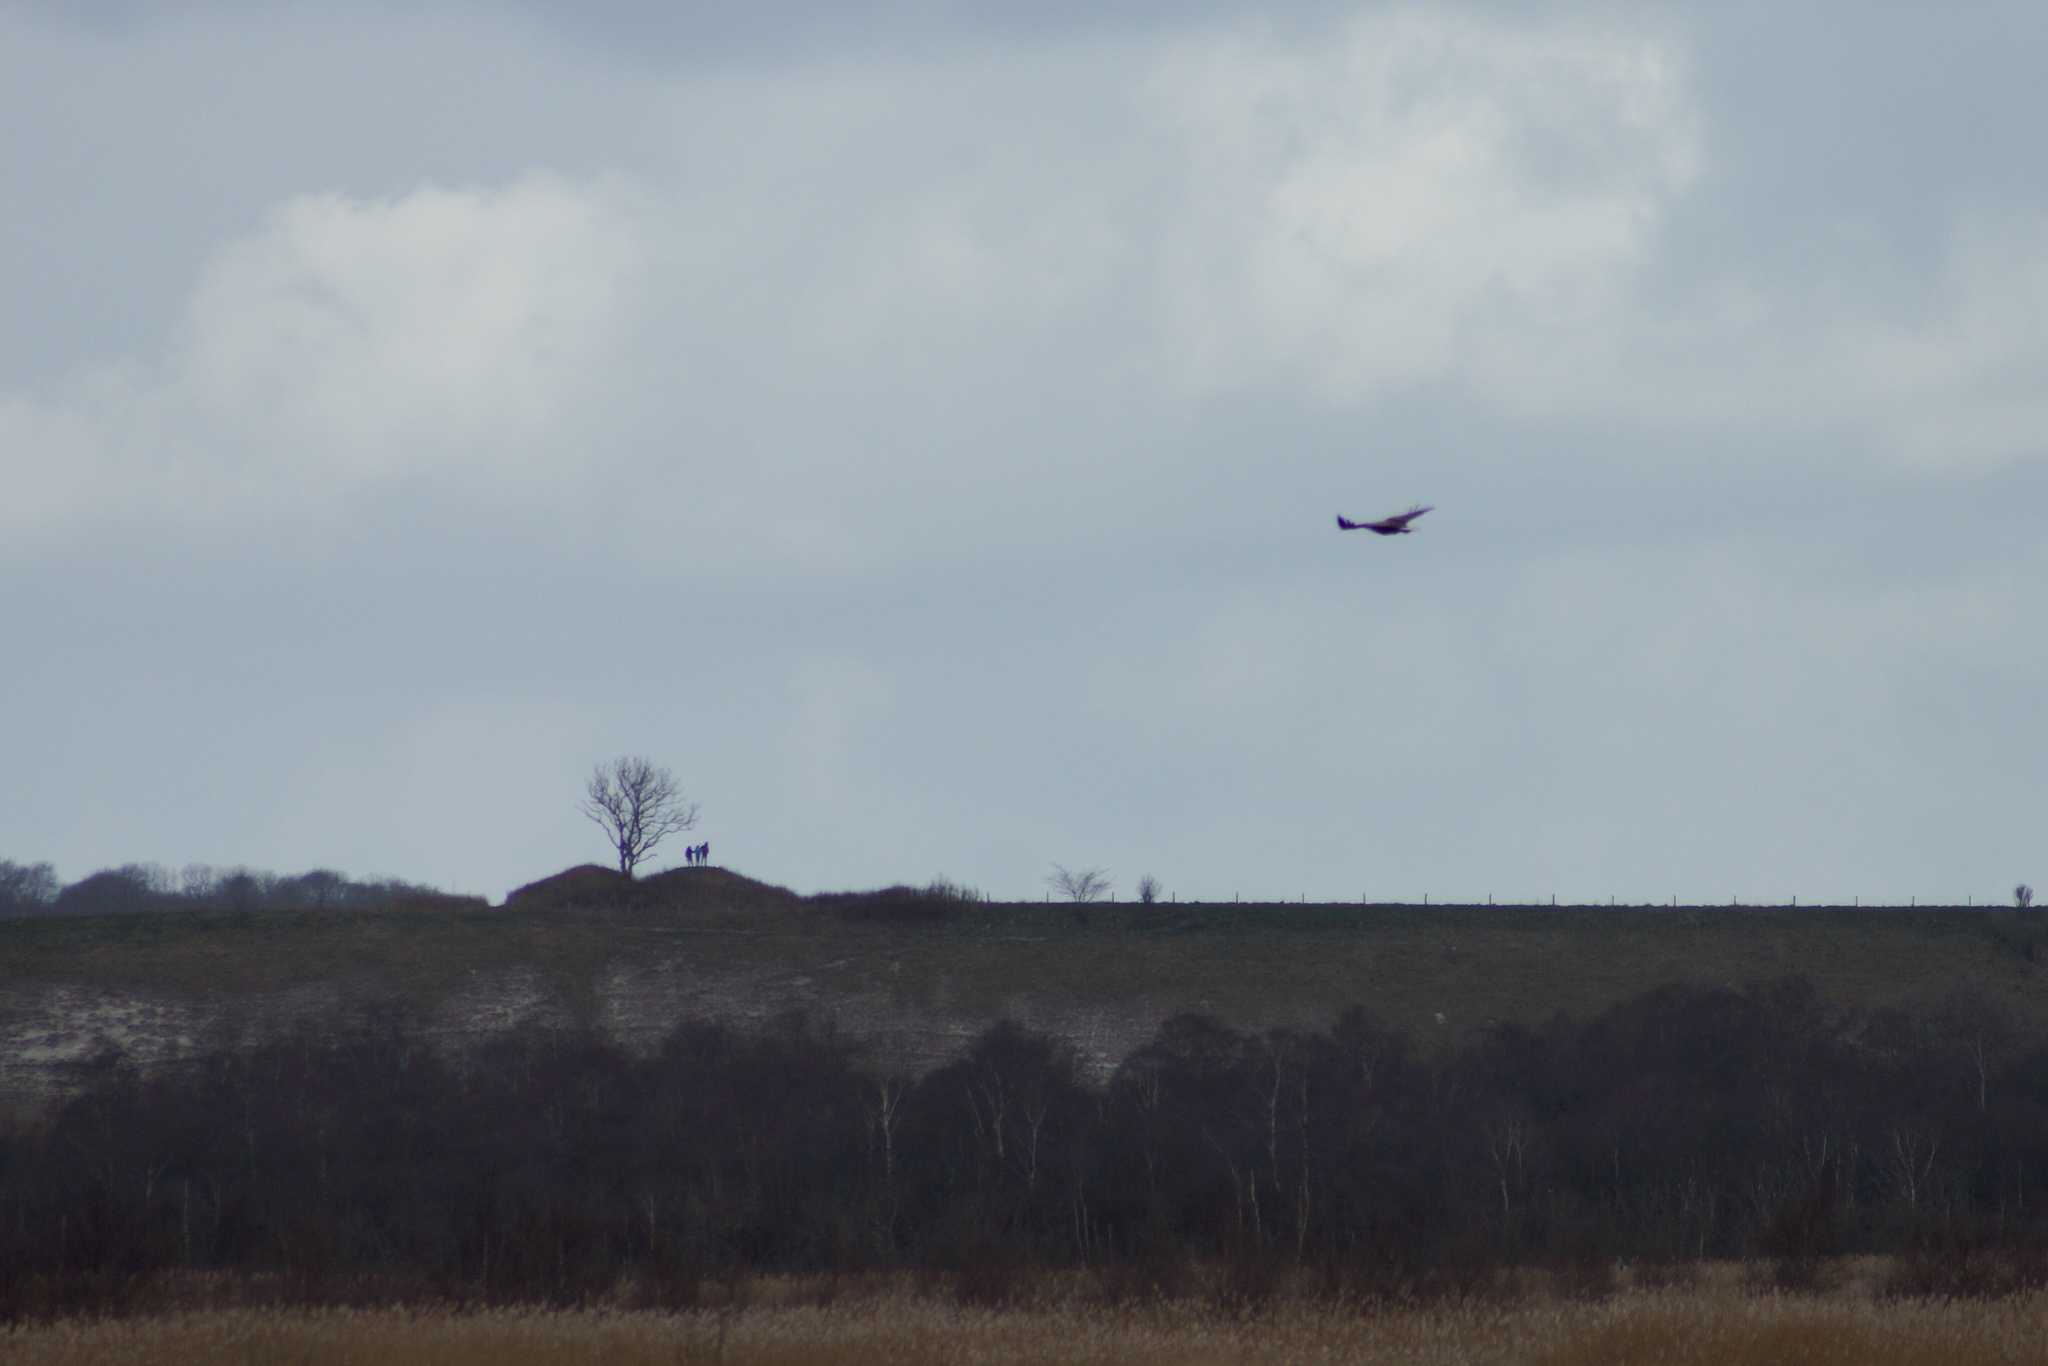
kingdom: Animalia
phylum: Chordata
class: Aves
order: Accipitriformes
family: Accipitridae
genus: Haliaeetus
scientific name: Haliaeetus albicilla
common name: White-tailed eagle
